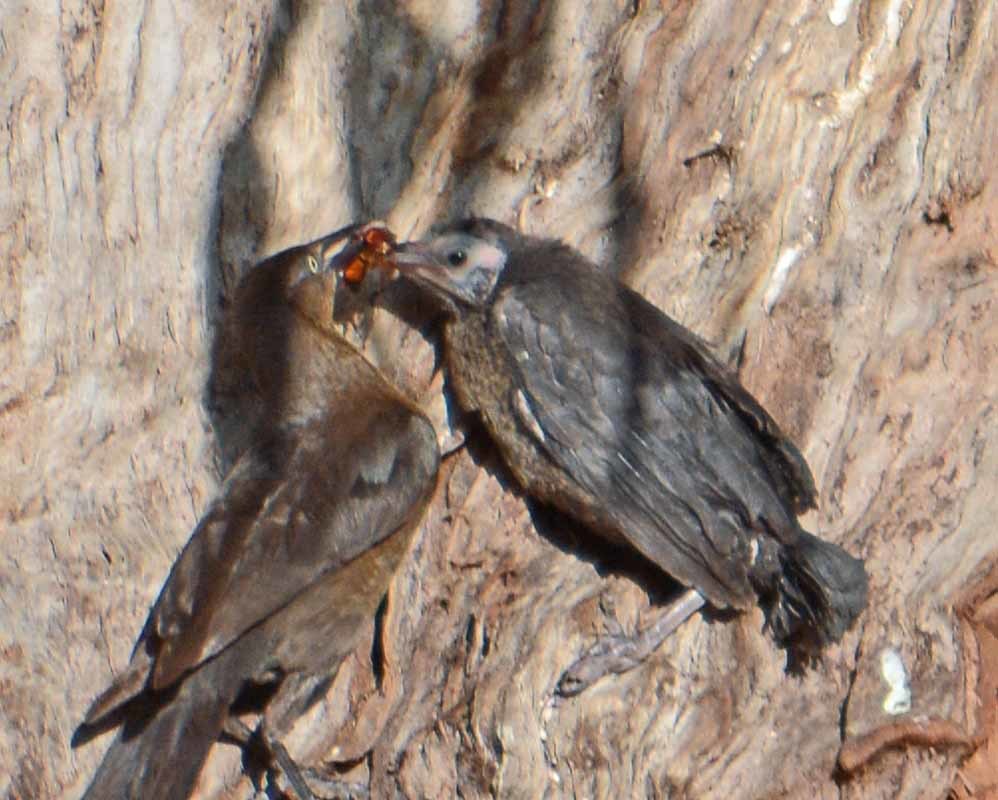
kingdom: Animalia
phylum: Chordata
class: Aves
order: Passeriformes
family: Icteridae
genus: Quiscalus
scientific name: Quiscalus mexicanus
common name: Great-tailed grackle
